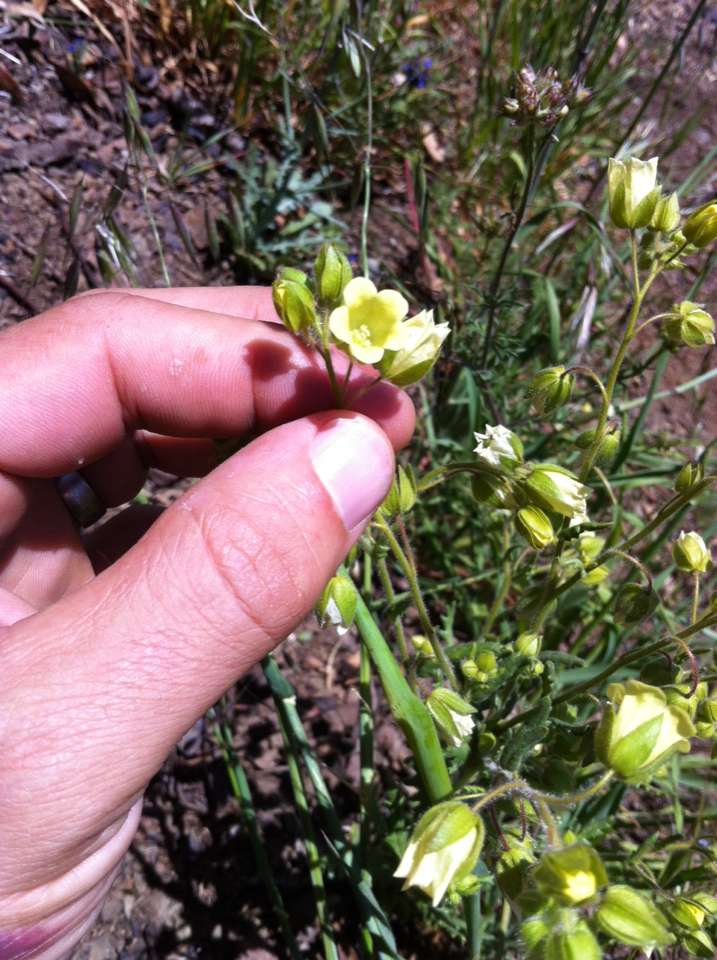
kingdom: Plantae
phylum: Tracheophyta
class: Magnoliopsida
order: Boraginales
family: Hydrophyllaceae
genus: Emmenanthe
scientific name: Emmenanthe penduliflora
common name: Whispering-bells
